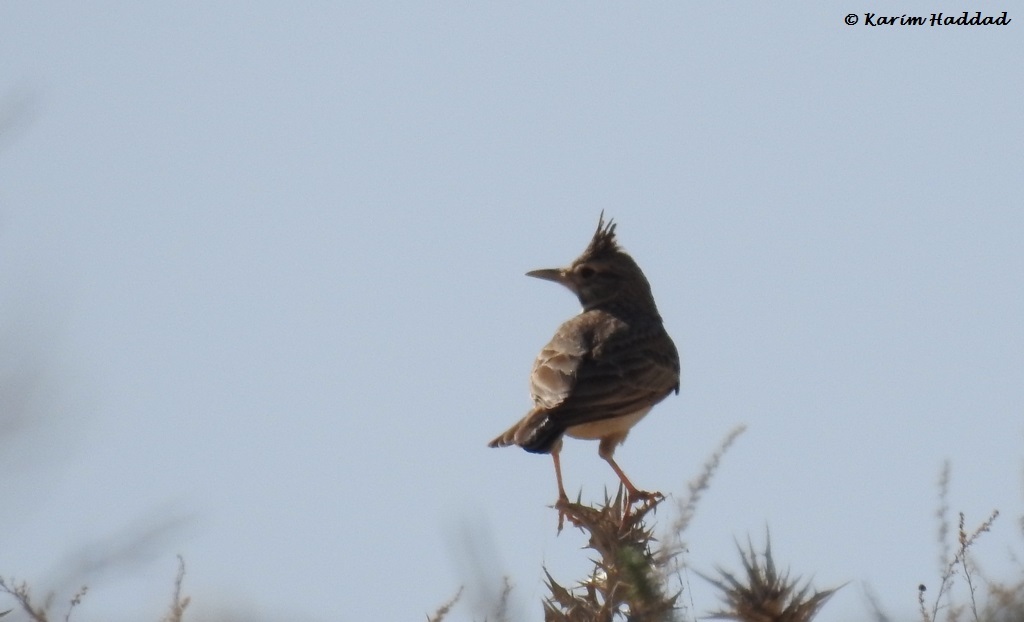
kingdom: Animalia
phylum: Chordata
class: Aves
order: Passeriformes
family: Alaudidae
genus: Galerida
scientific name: Galerida cristata
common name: Crested lark
